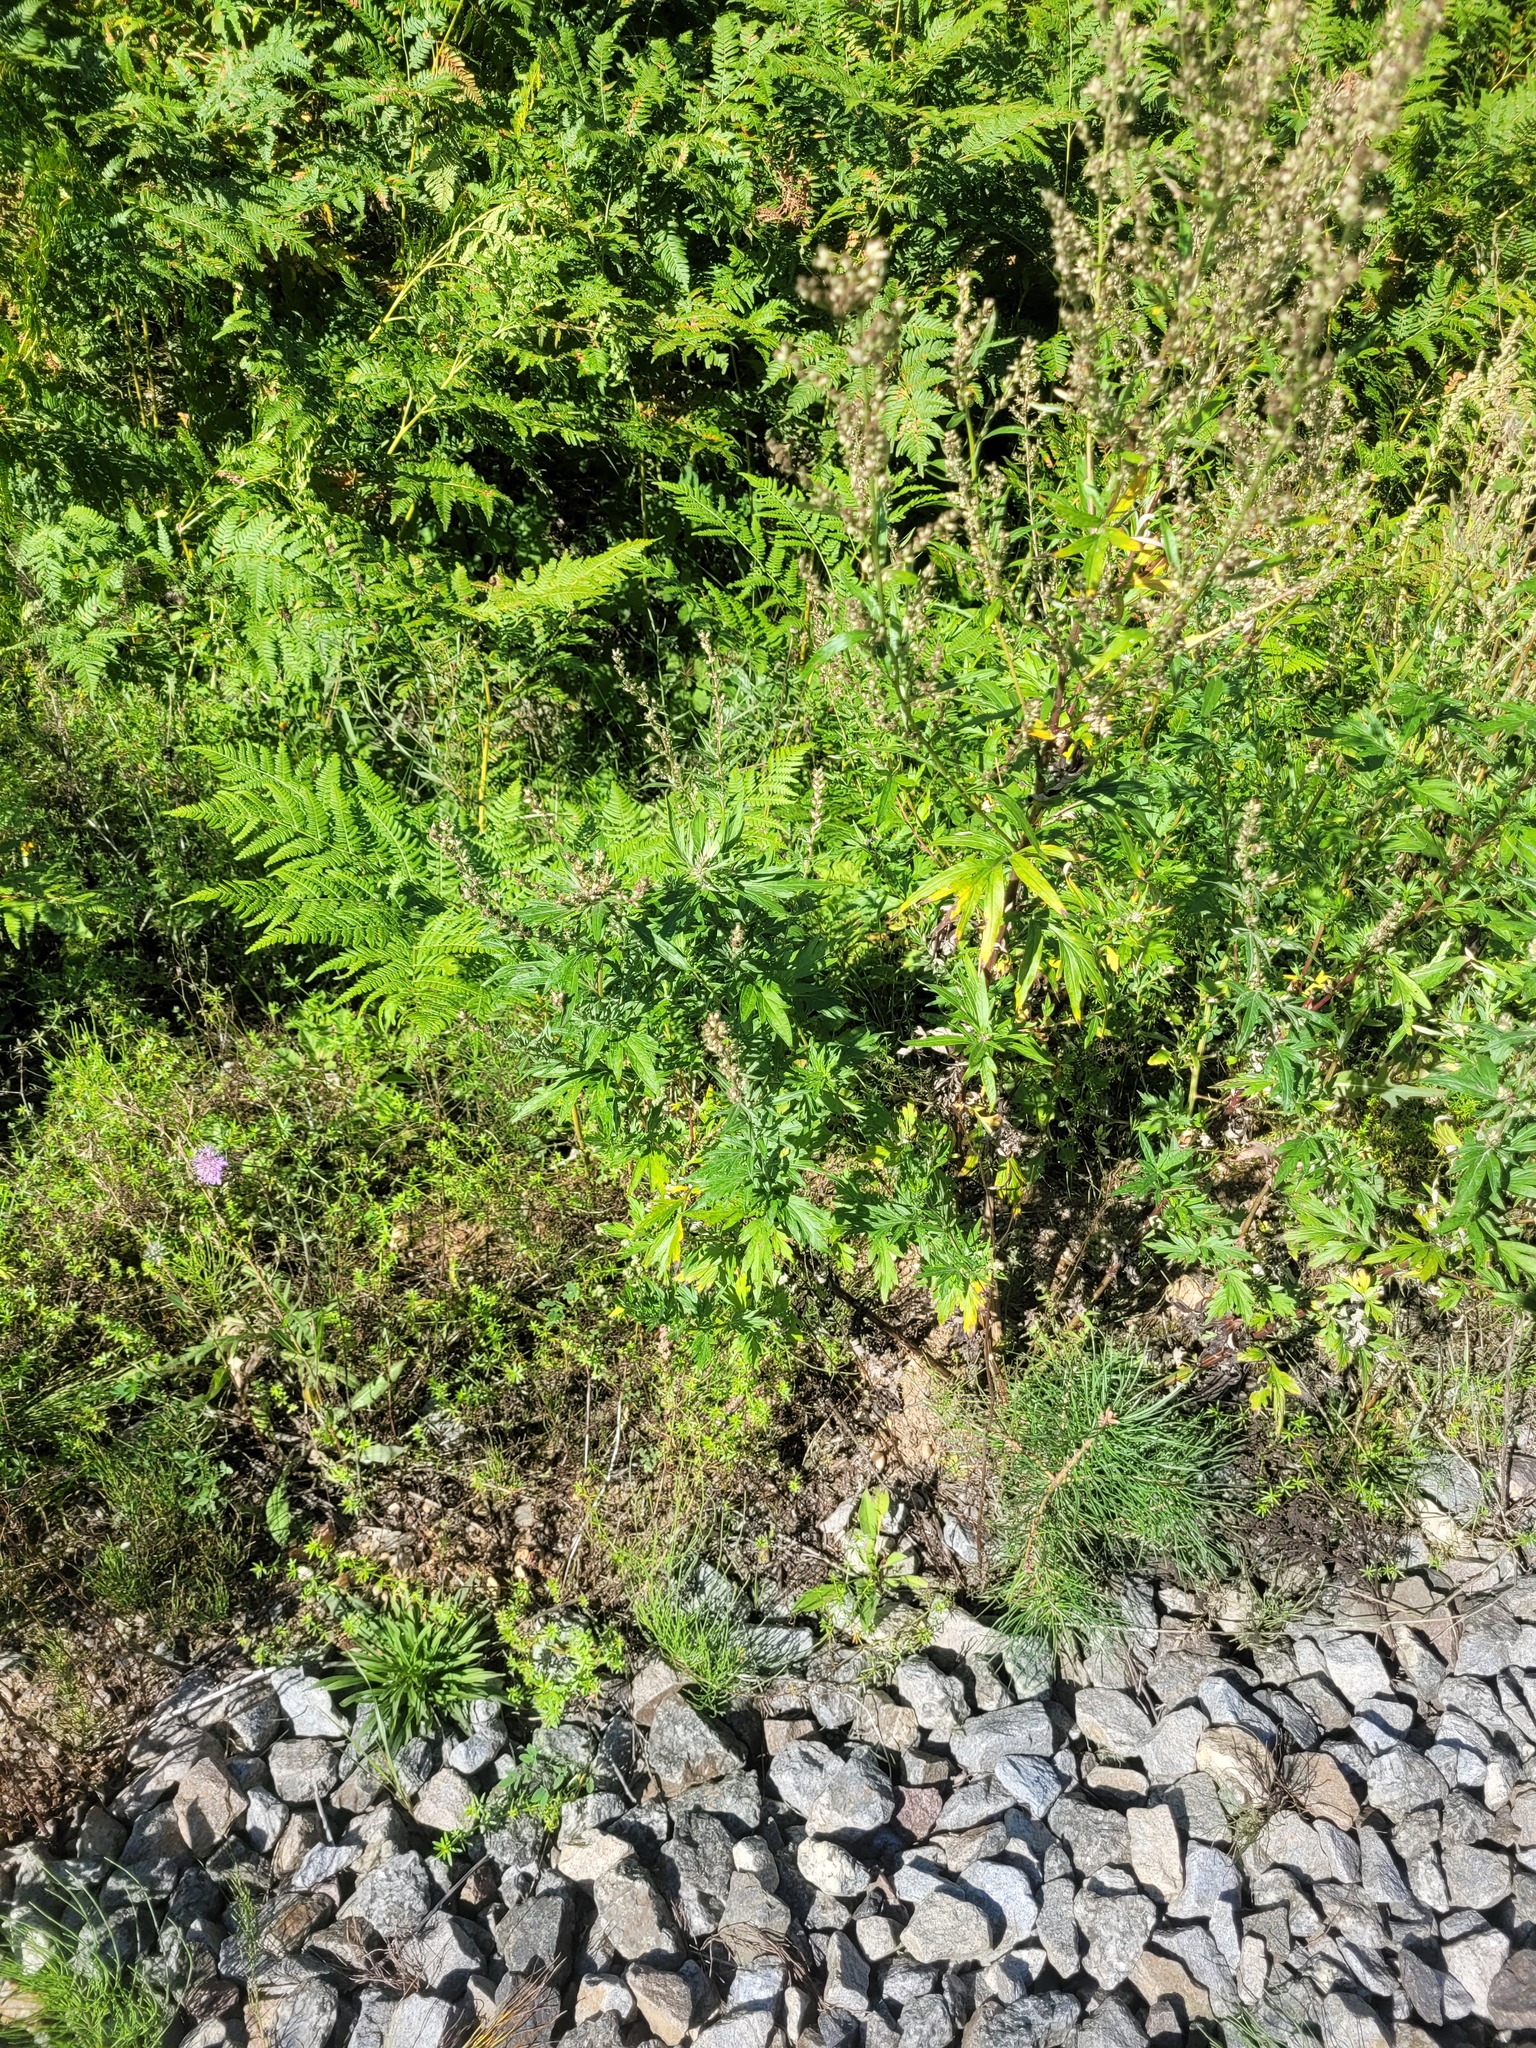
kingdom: Plantae
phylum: Tracheophyta
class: Magnoliopsida
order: Asterales
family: Asteraceae
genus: Artemisia
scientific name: Artemisia vulgaris
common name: Mugwort
